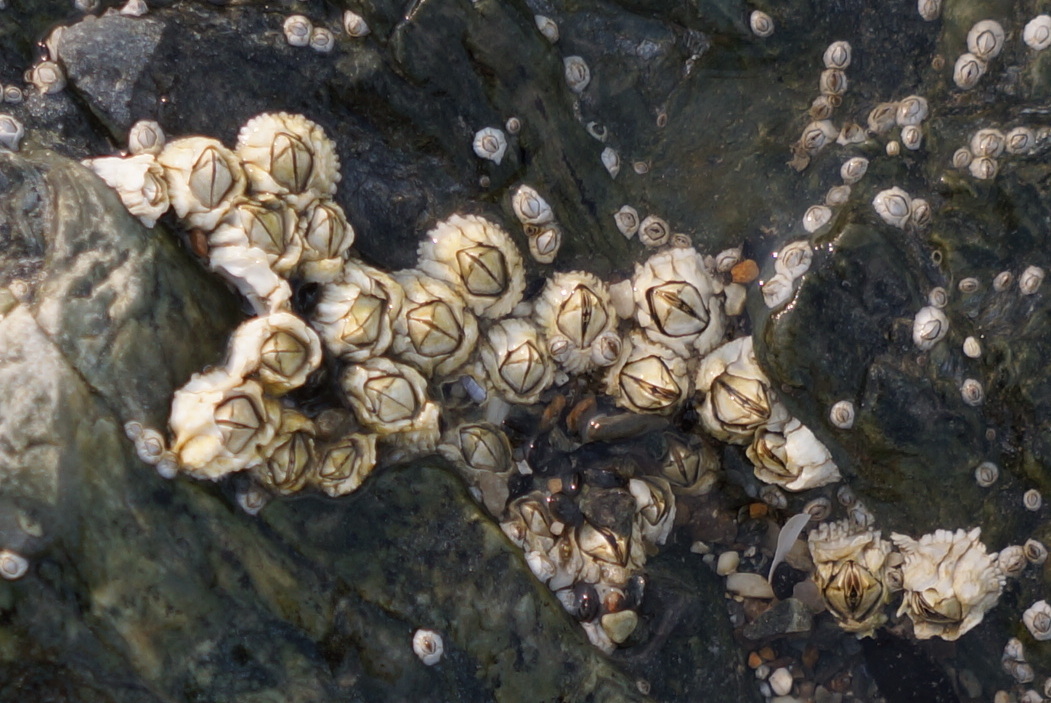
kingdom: Animalia
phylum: Arthropoda
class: Maxillopoda
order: Sessilia
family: Archaeobalanidae
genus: Semibalanus
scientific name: Semibalanus balanoides
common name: Acorn barnacle
